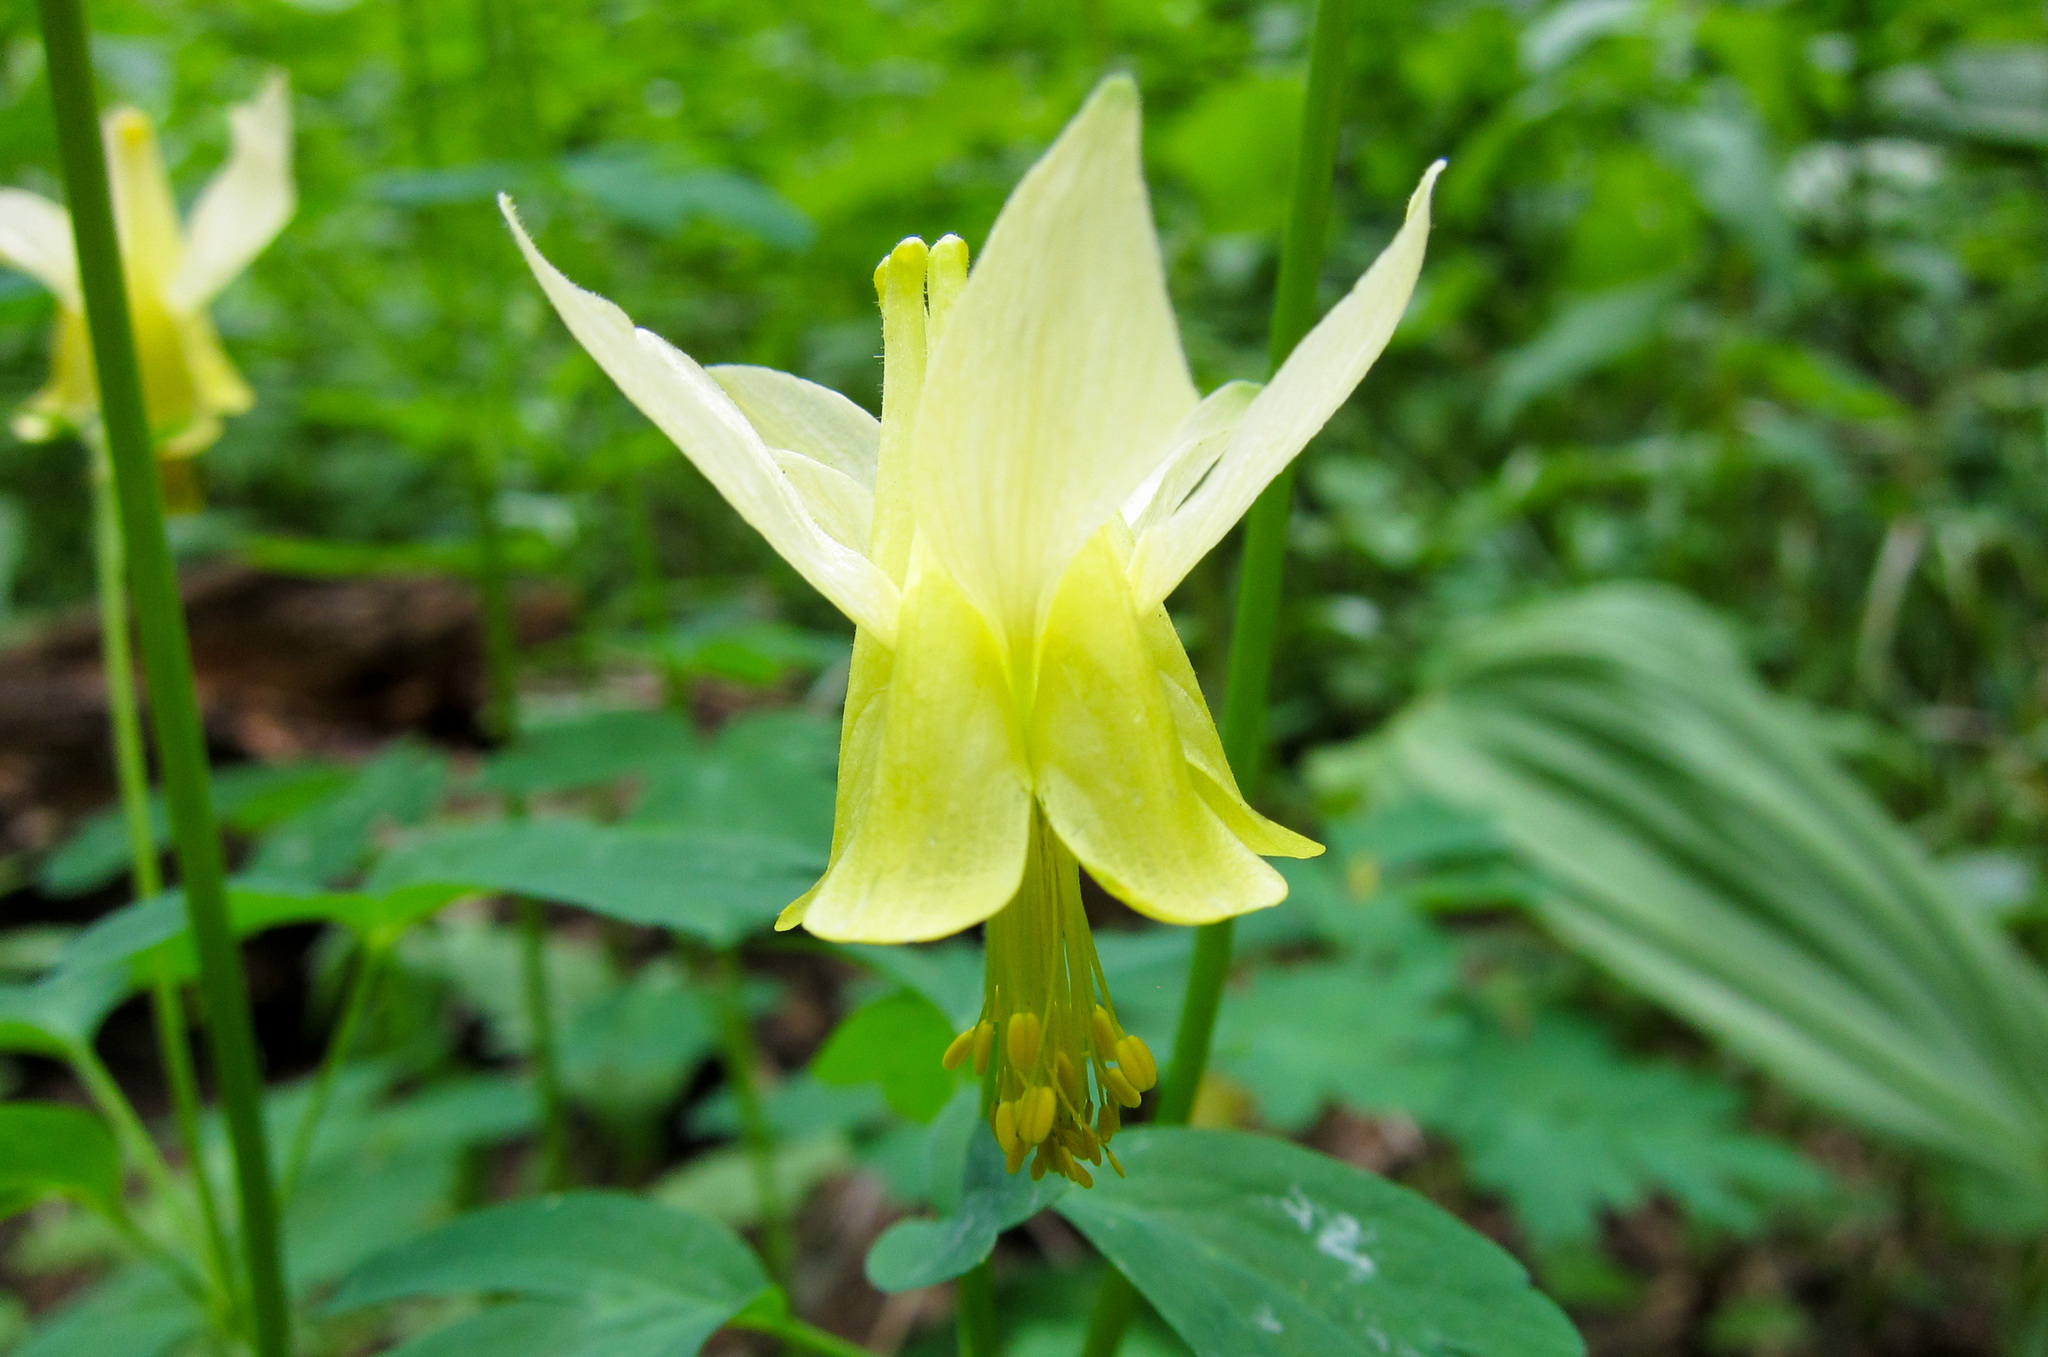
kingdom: Plantae
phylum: Tracheophyta
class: Magnoliopsida
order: Ranunculales
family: Ranunculaceae
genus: Aquilegia
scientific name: Aquilegia flavescens
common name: Yellow columbine
